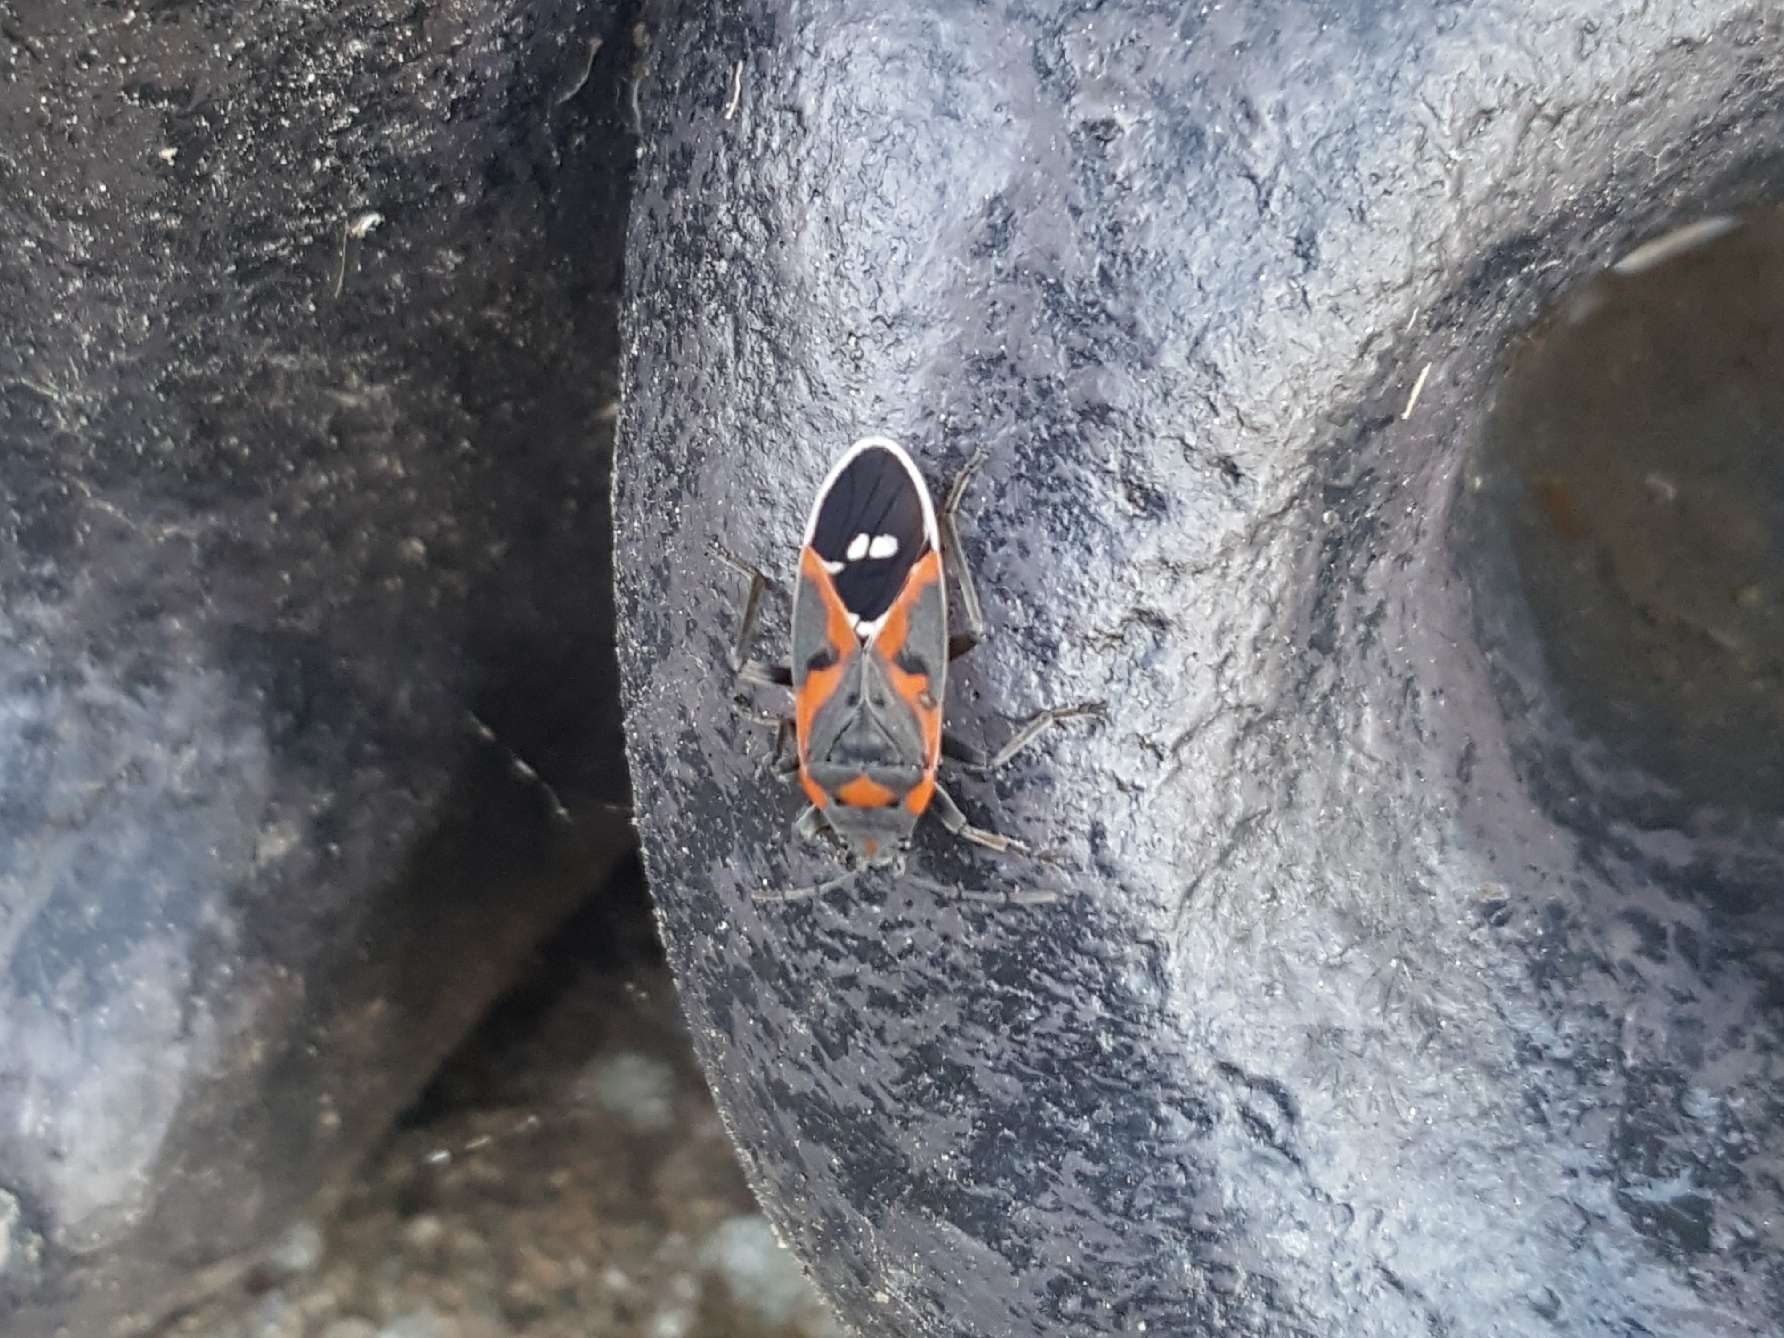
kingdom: Animalia
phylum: Arthropoda
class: Insecta
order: Hemiptera
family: Lygaeidae
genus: Lygaeus
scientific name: Lygaeus kalmii
